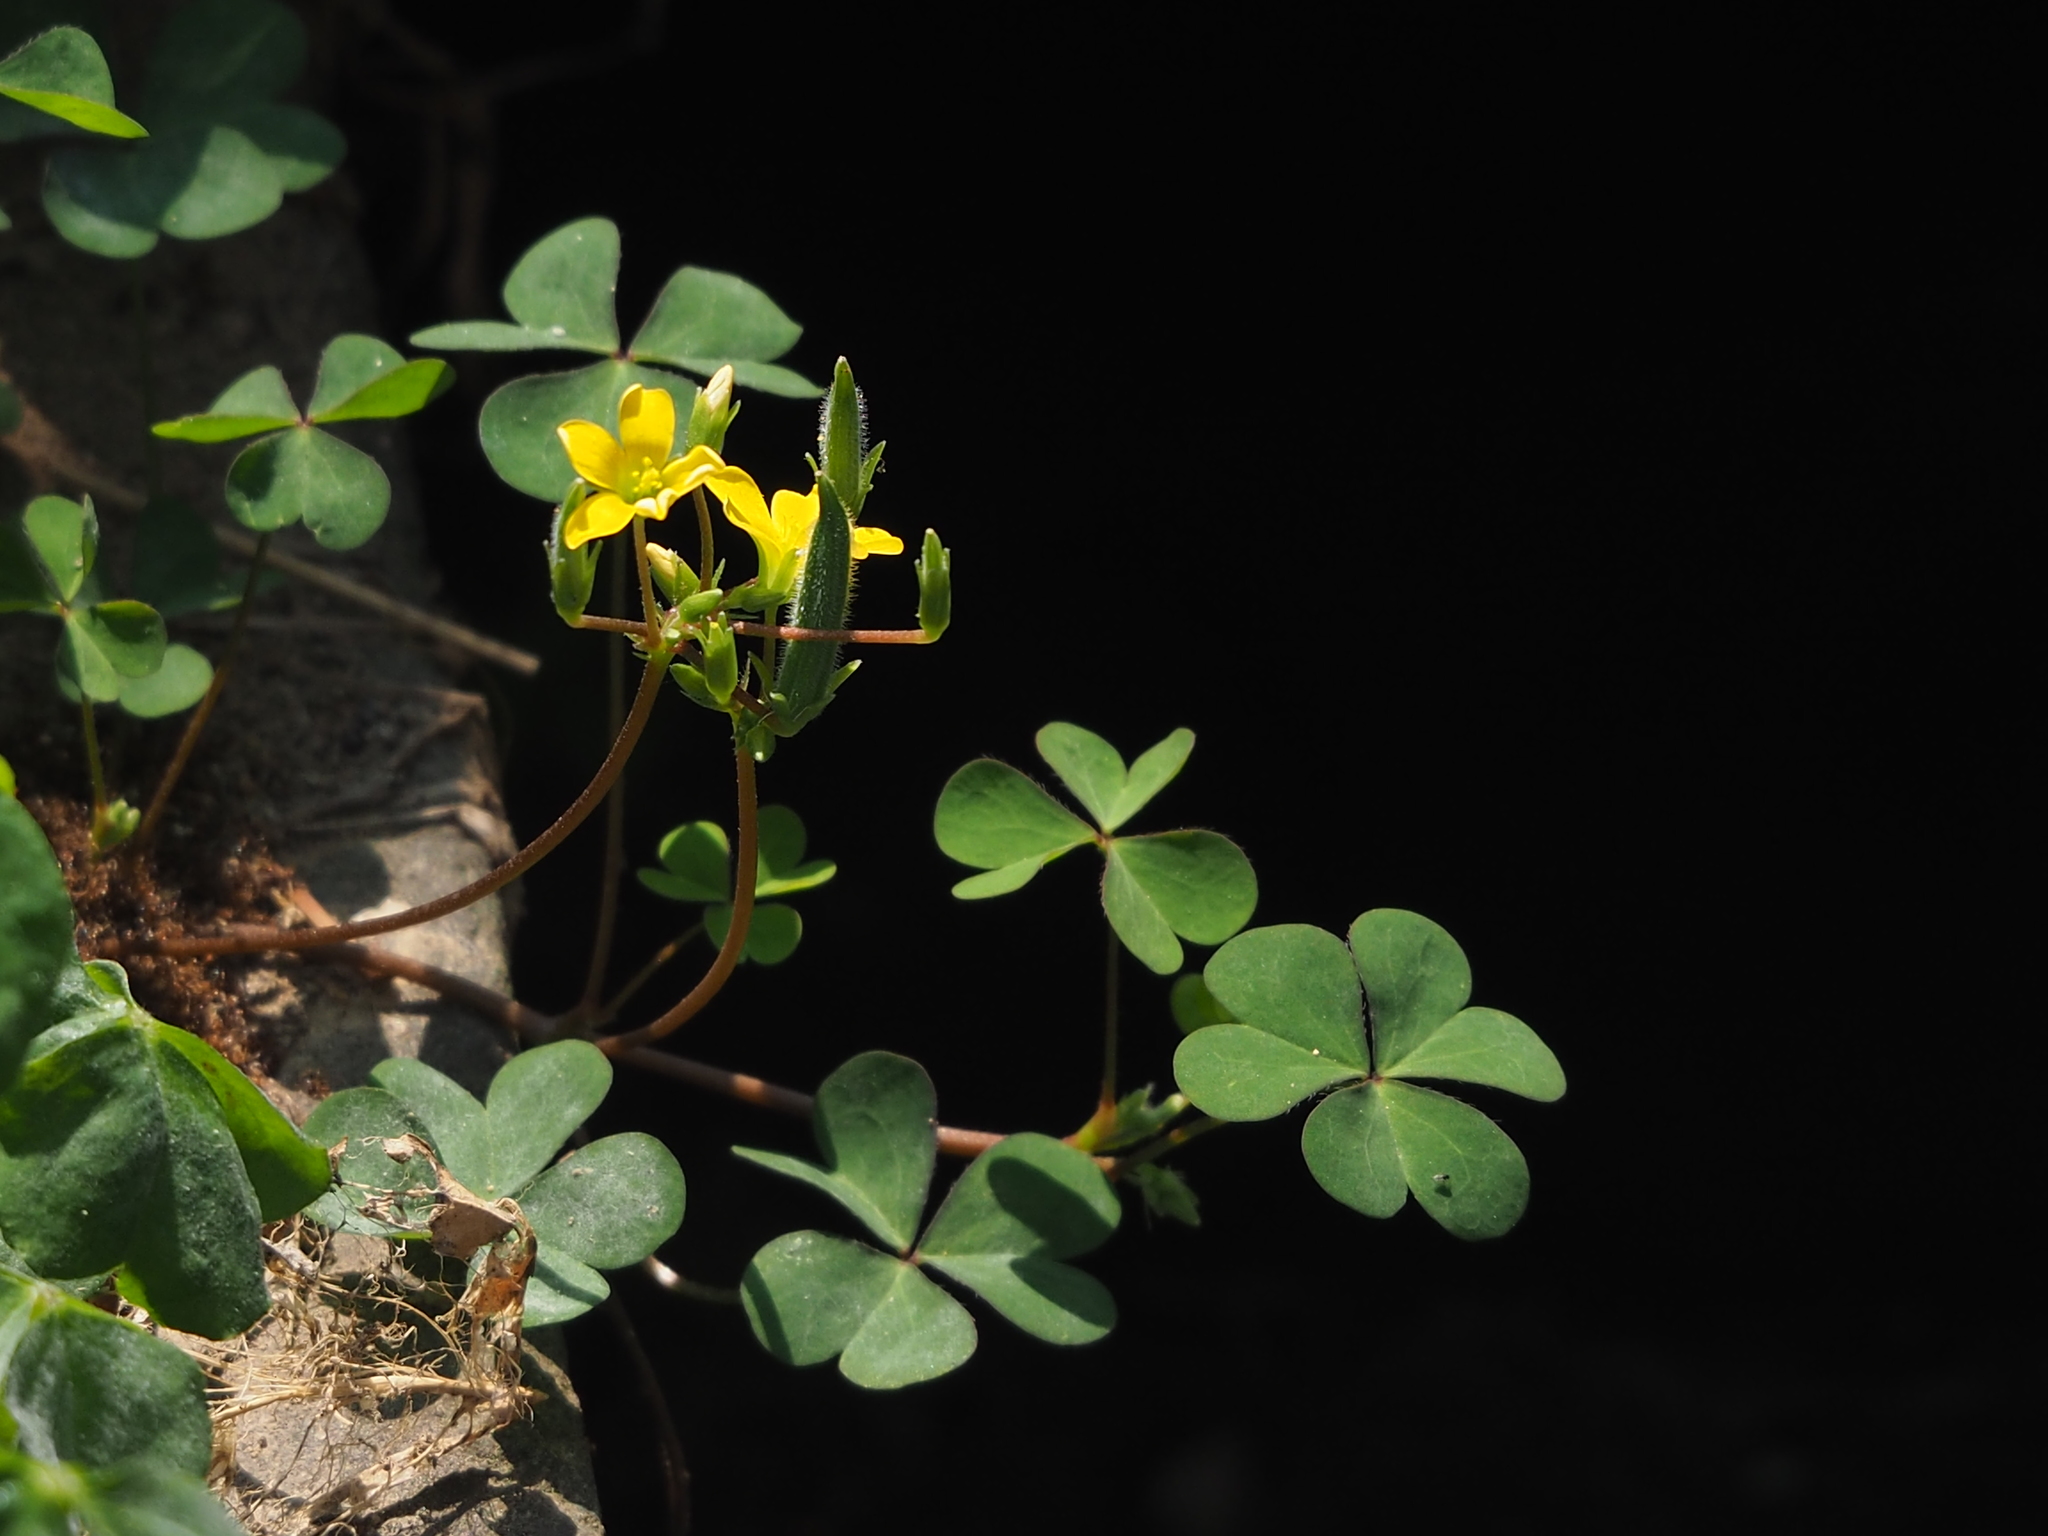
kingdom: Plantae
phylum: Tracheophyta
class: Magnoliopsida
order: Oxalidales
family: Oxalidaceae
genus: Oxalis
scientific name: Oxalis corniculata
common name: Procumbent yellow-sorrel
